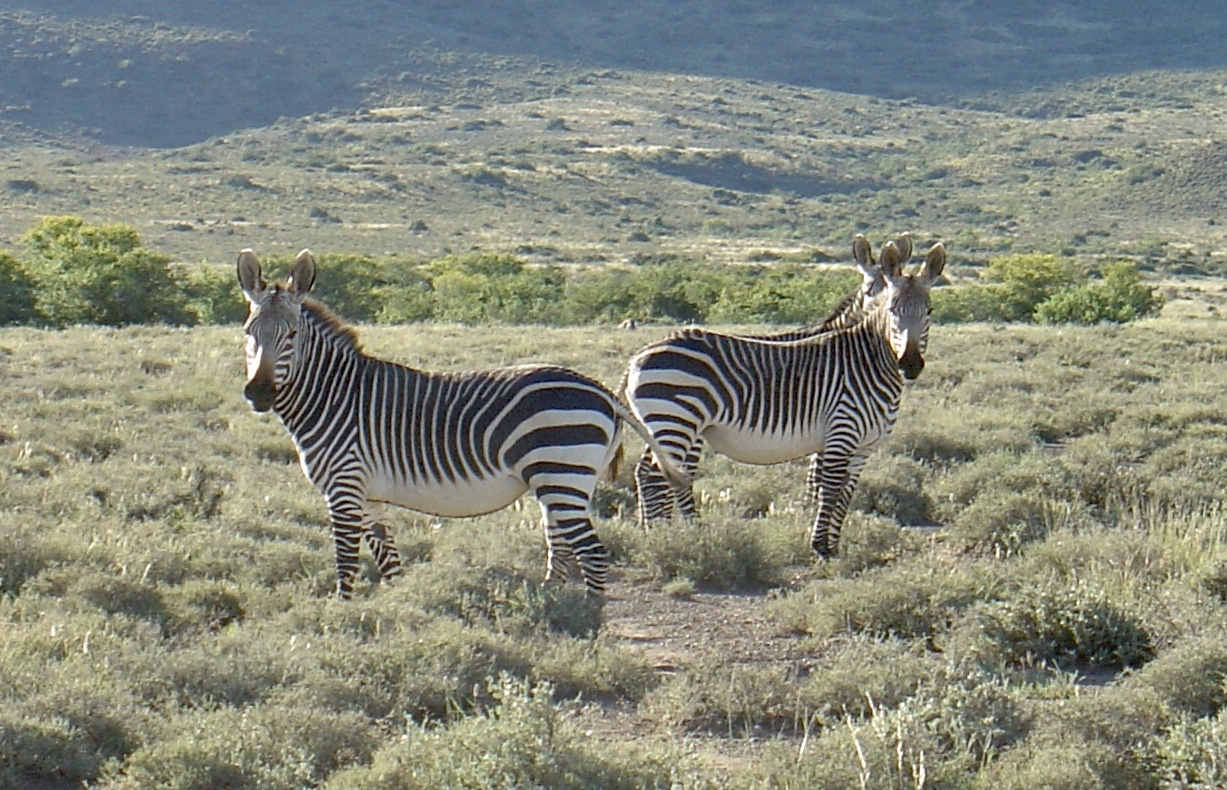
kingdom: Animalia
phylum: Chordata
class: Mammalia
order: Perissodactyla
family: Equidae
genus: Equus
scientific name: Equus zebra
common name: Mountain zebra
